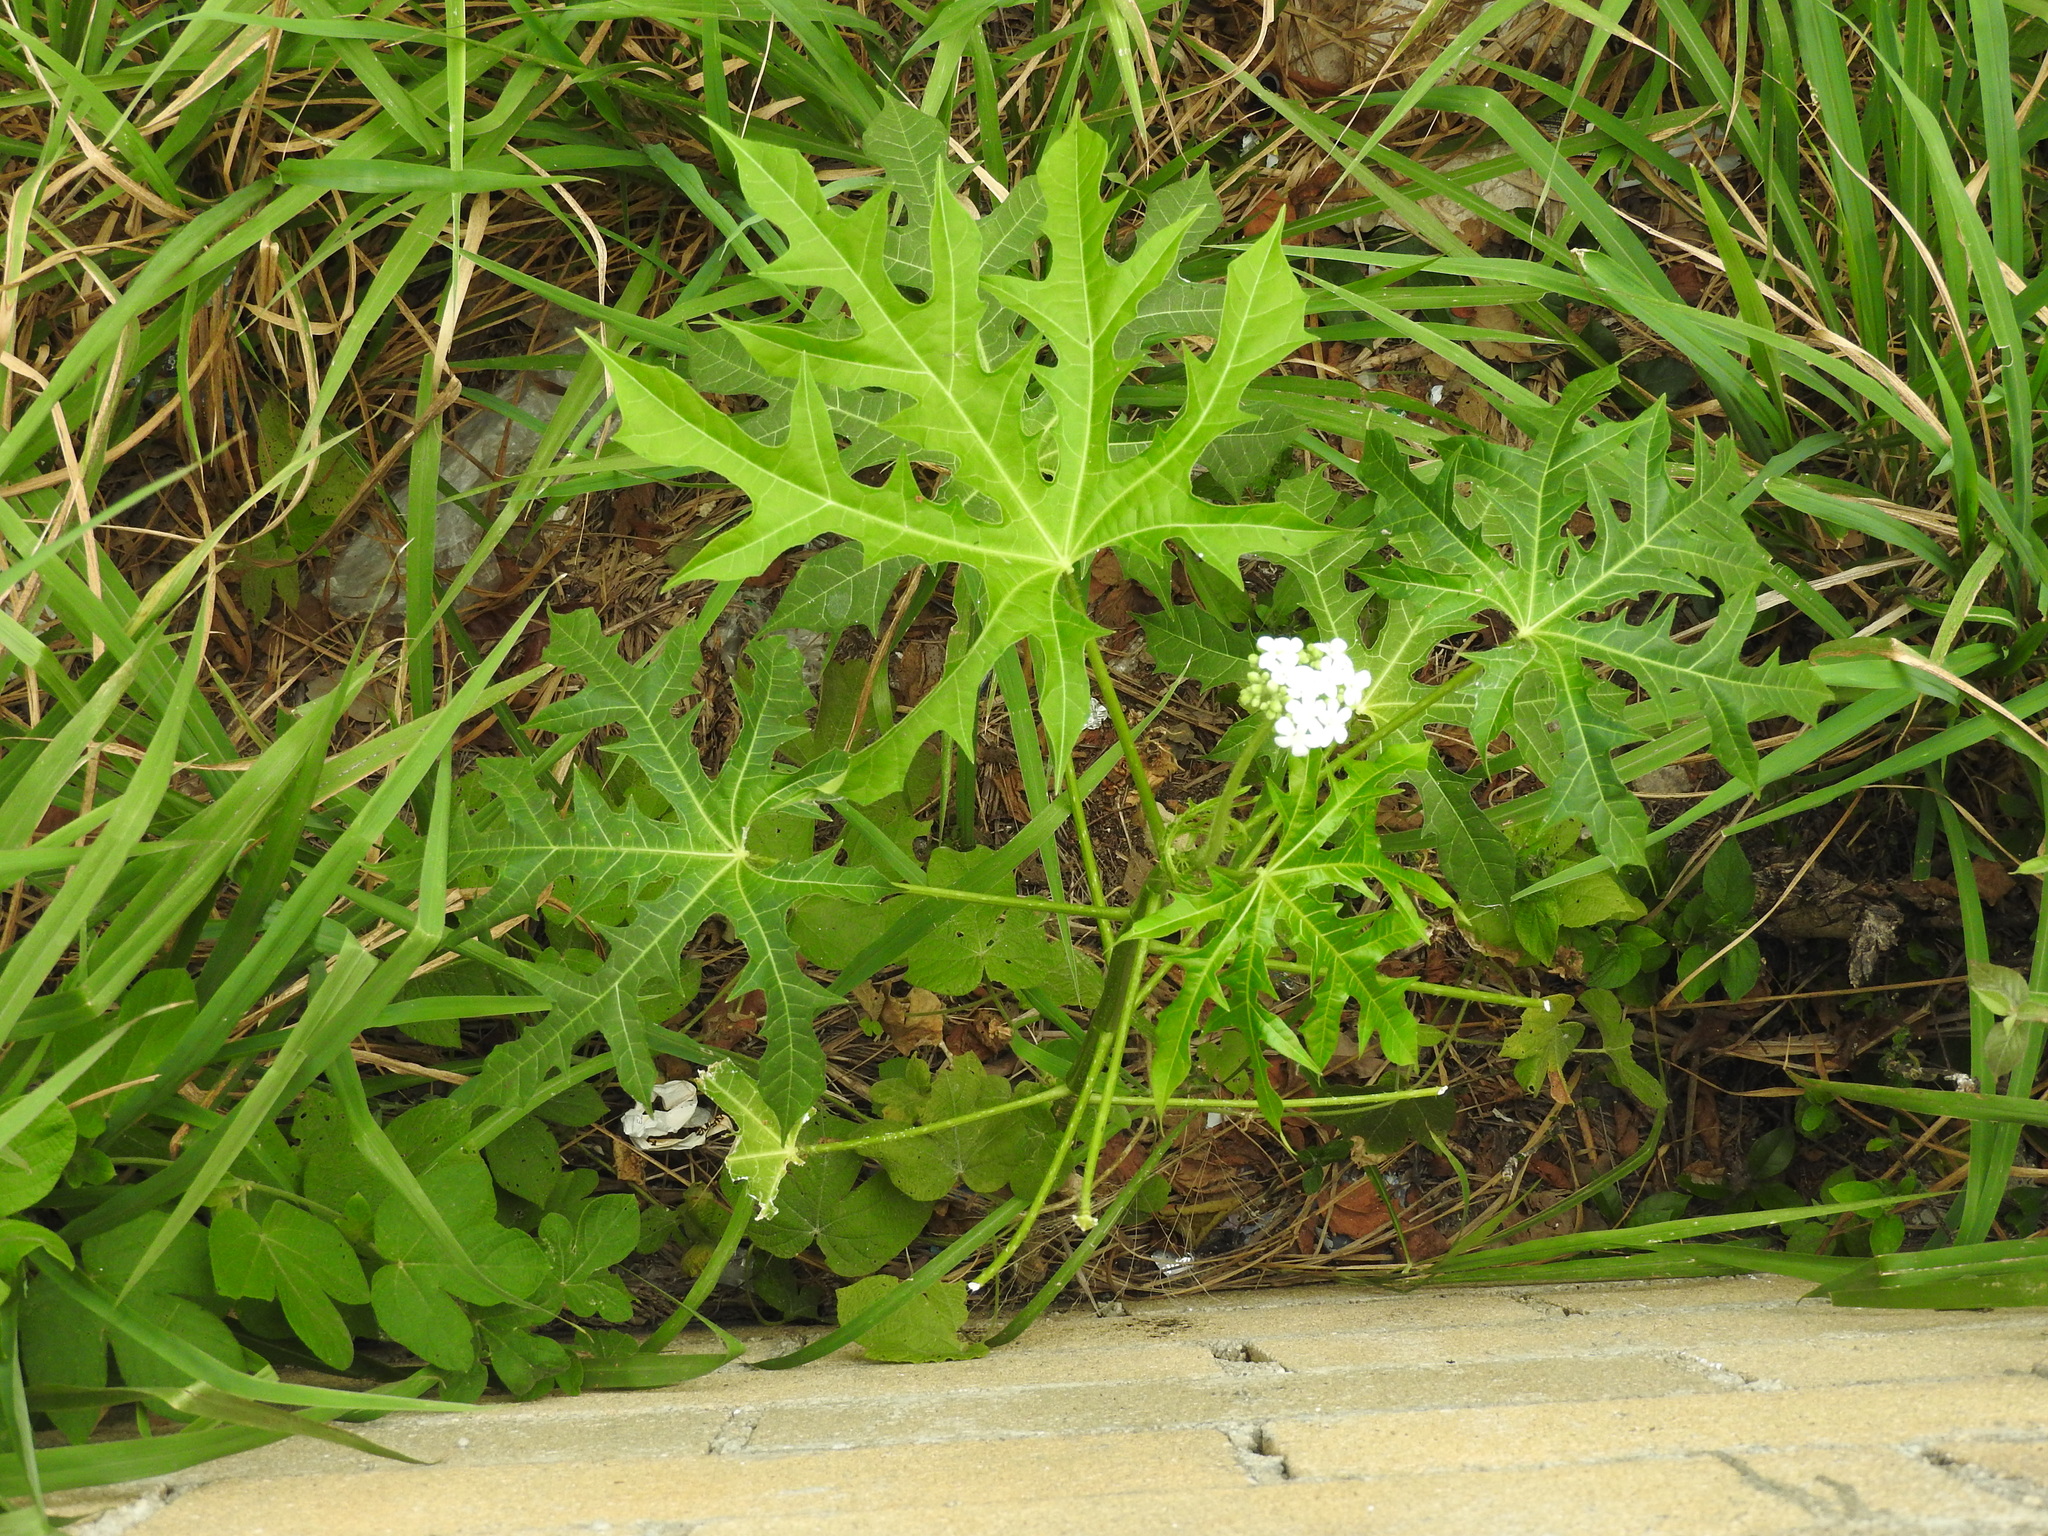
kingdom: Plantae
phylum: Tracheophyta
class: Magnoliopsida
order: Brassicales
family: Caricaceae
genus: Carica
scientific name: Carica papaya
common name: Papaya
